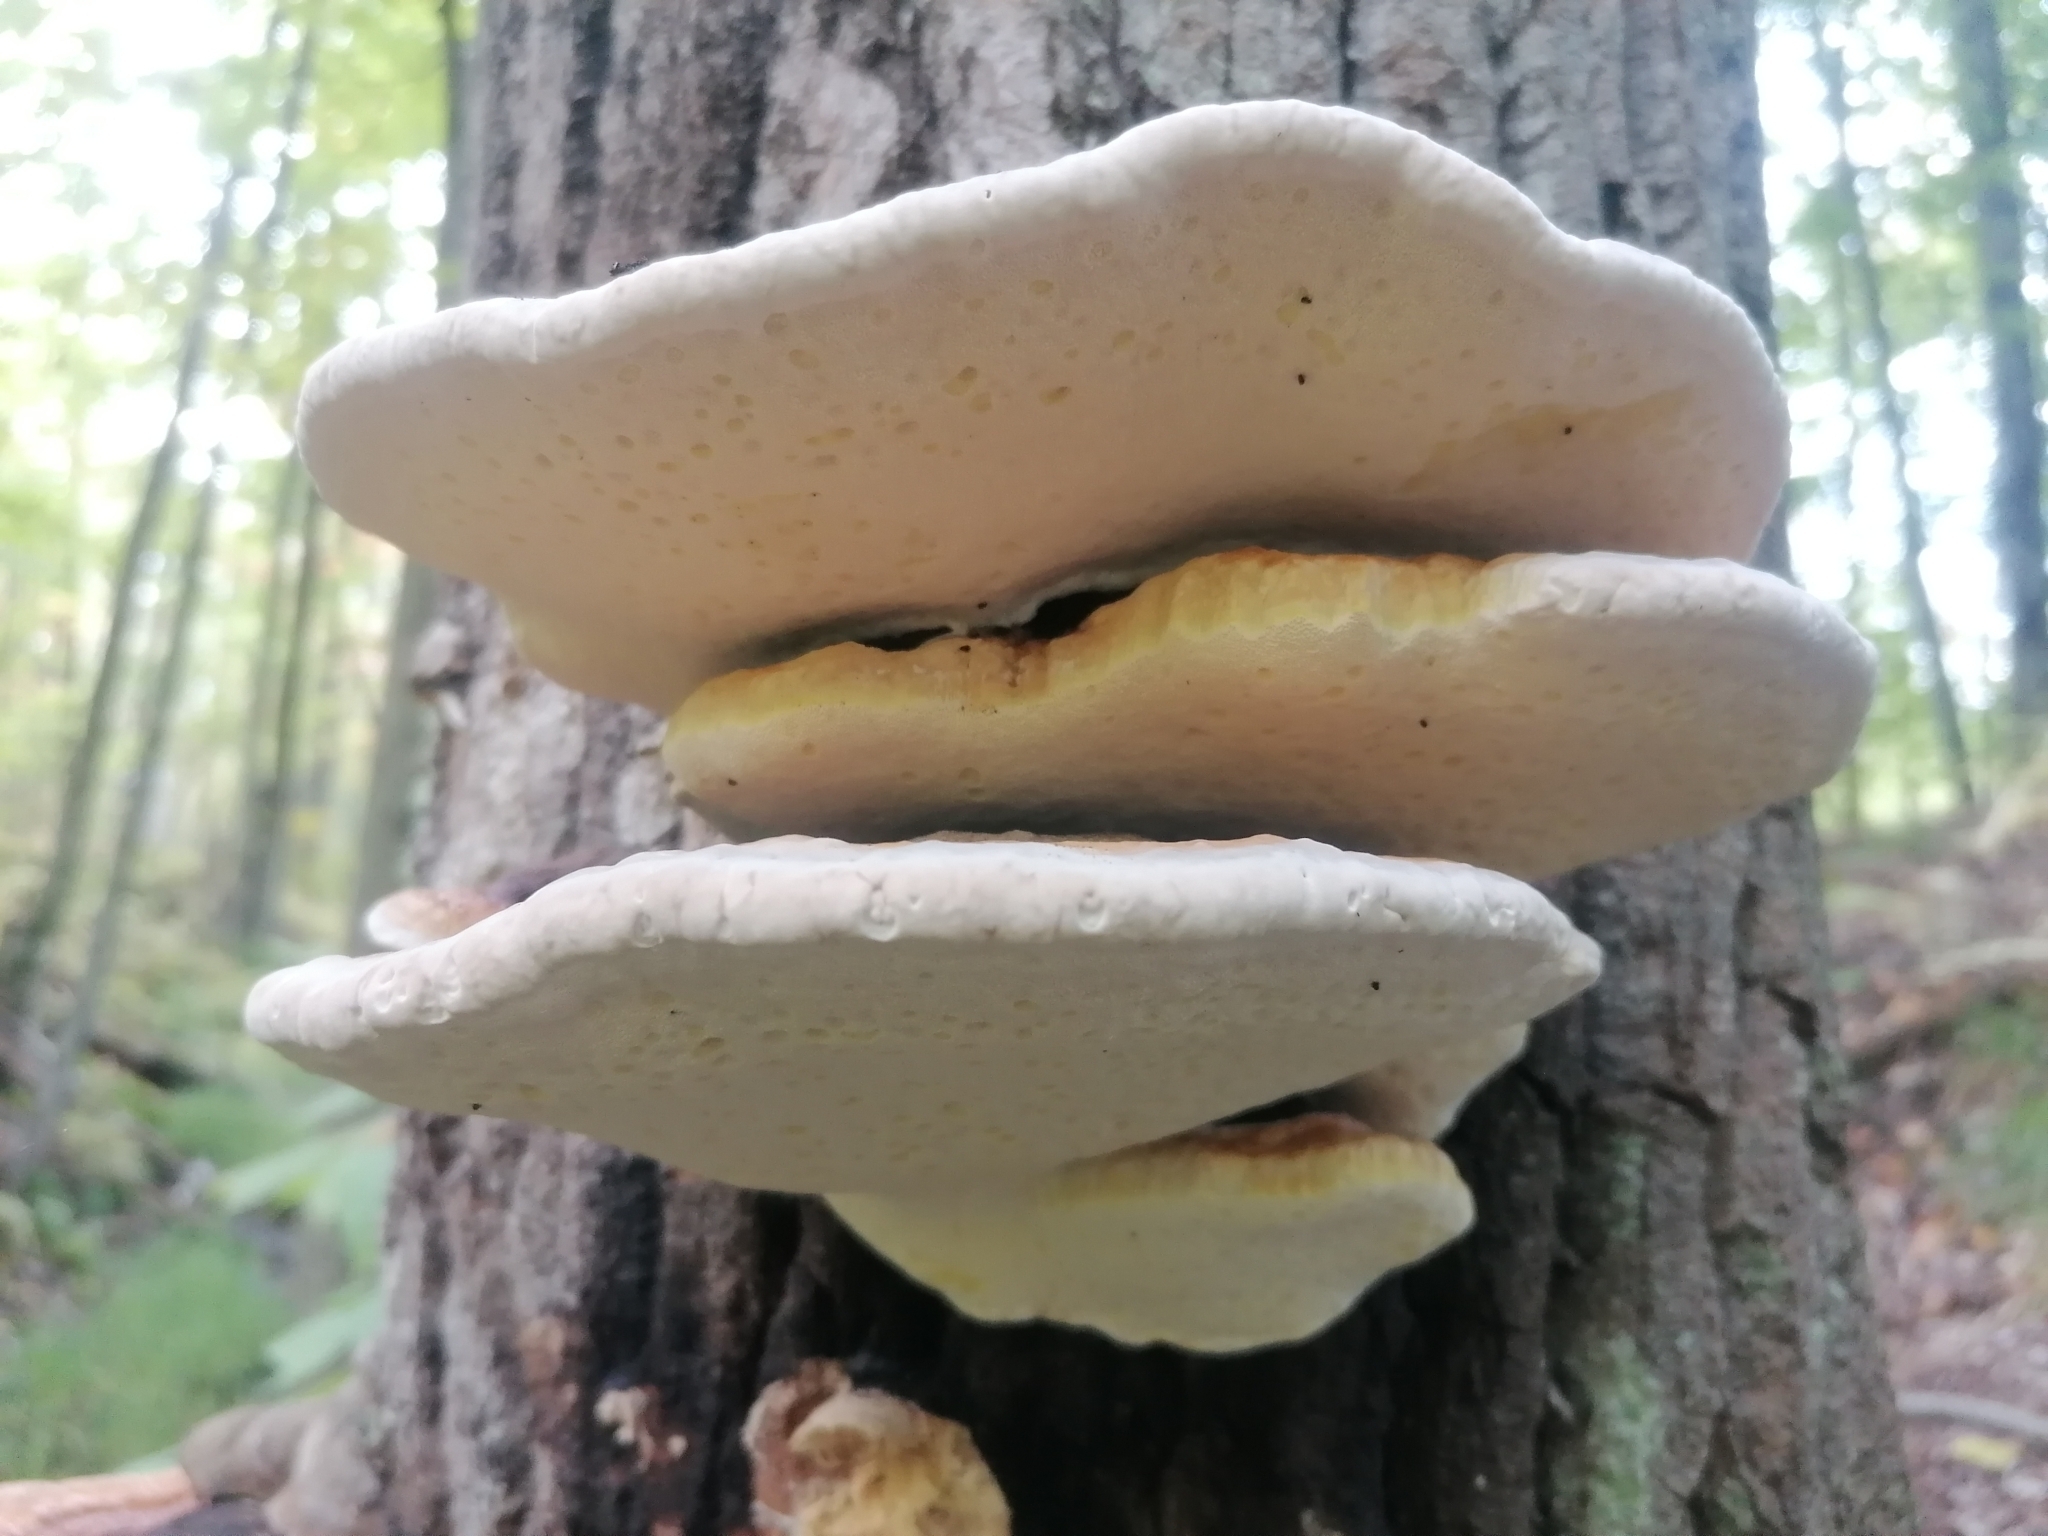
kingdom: Fungi
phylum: Basidiomycota
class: Agaricomycetes
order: Polyporales
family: Fomitopsidaceae
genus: Fomitopsis
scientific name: Fomitopsis mounceae
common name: Northern red belt
